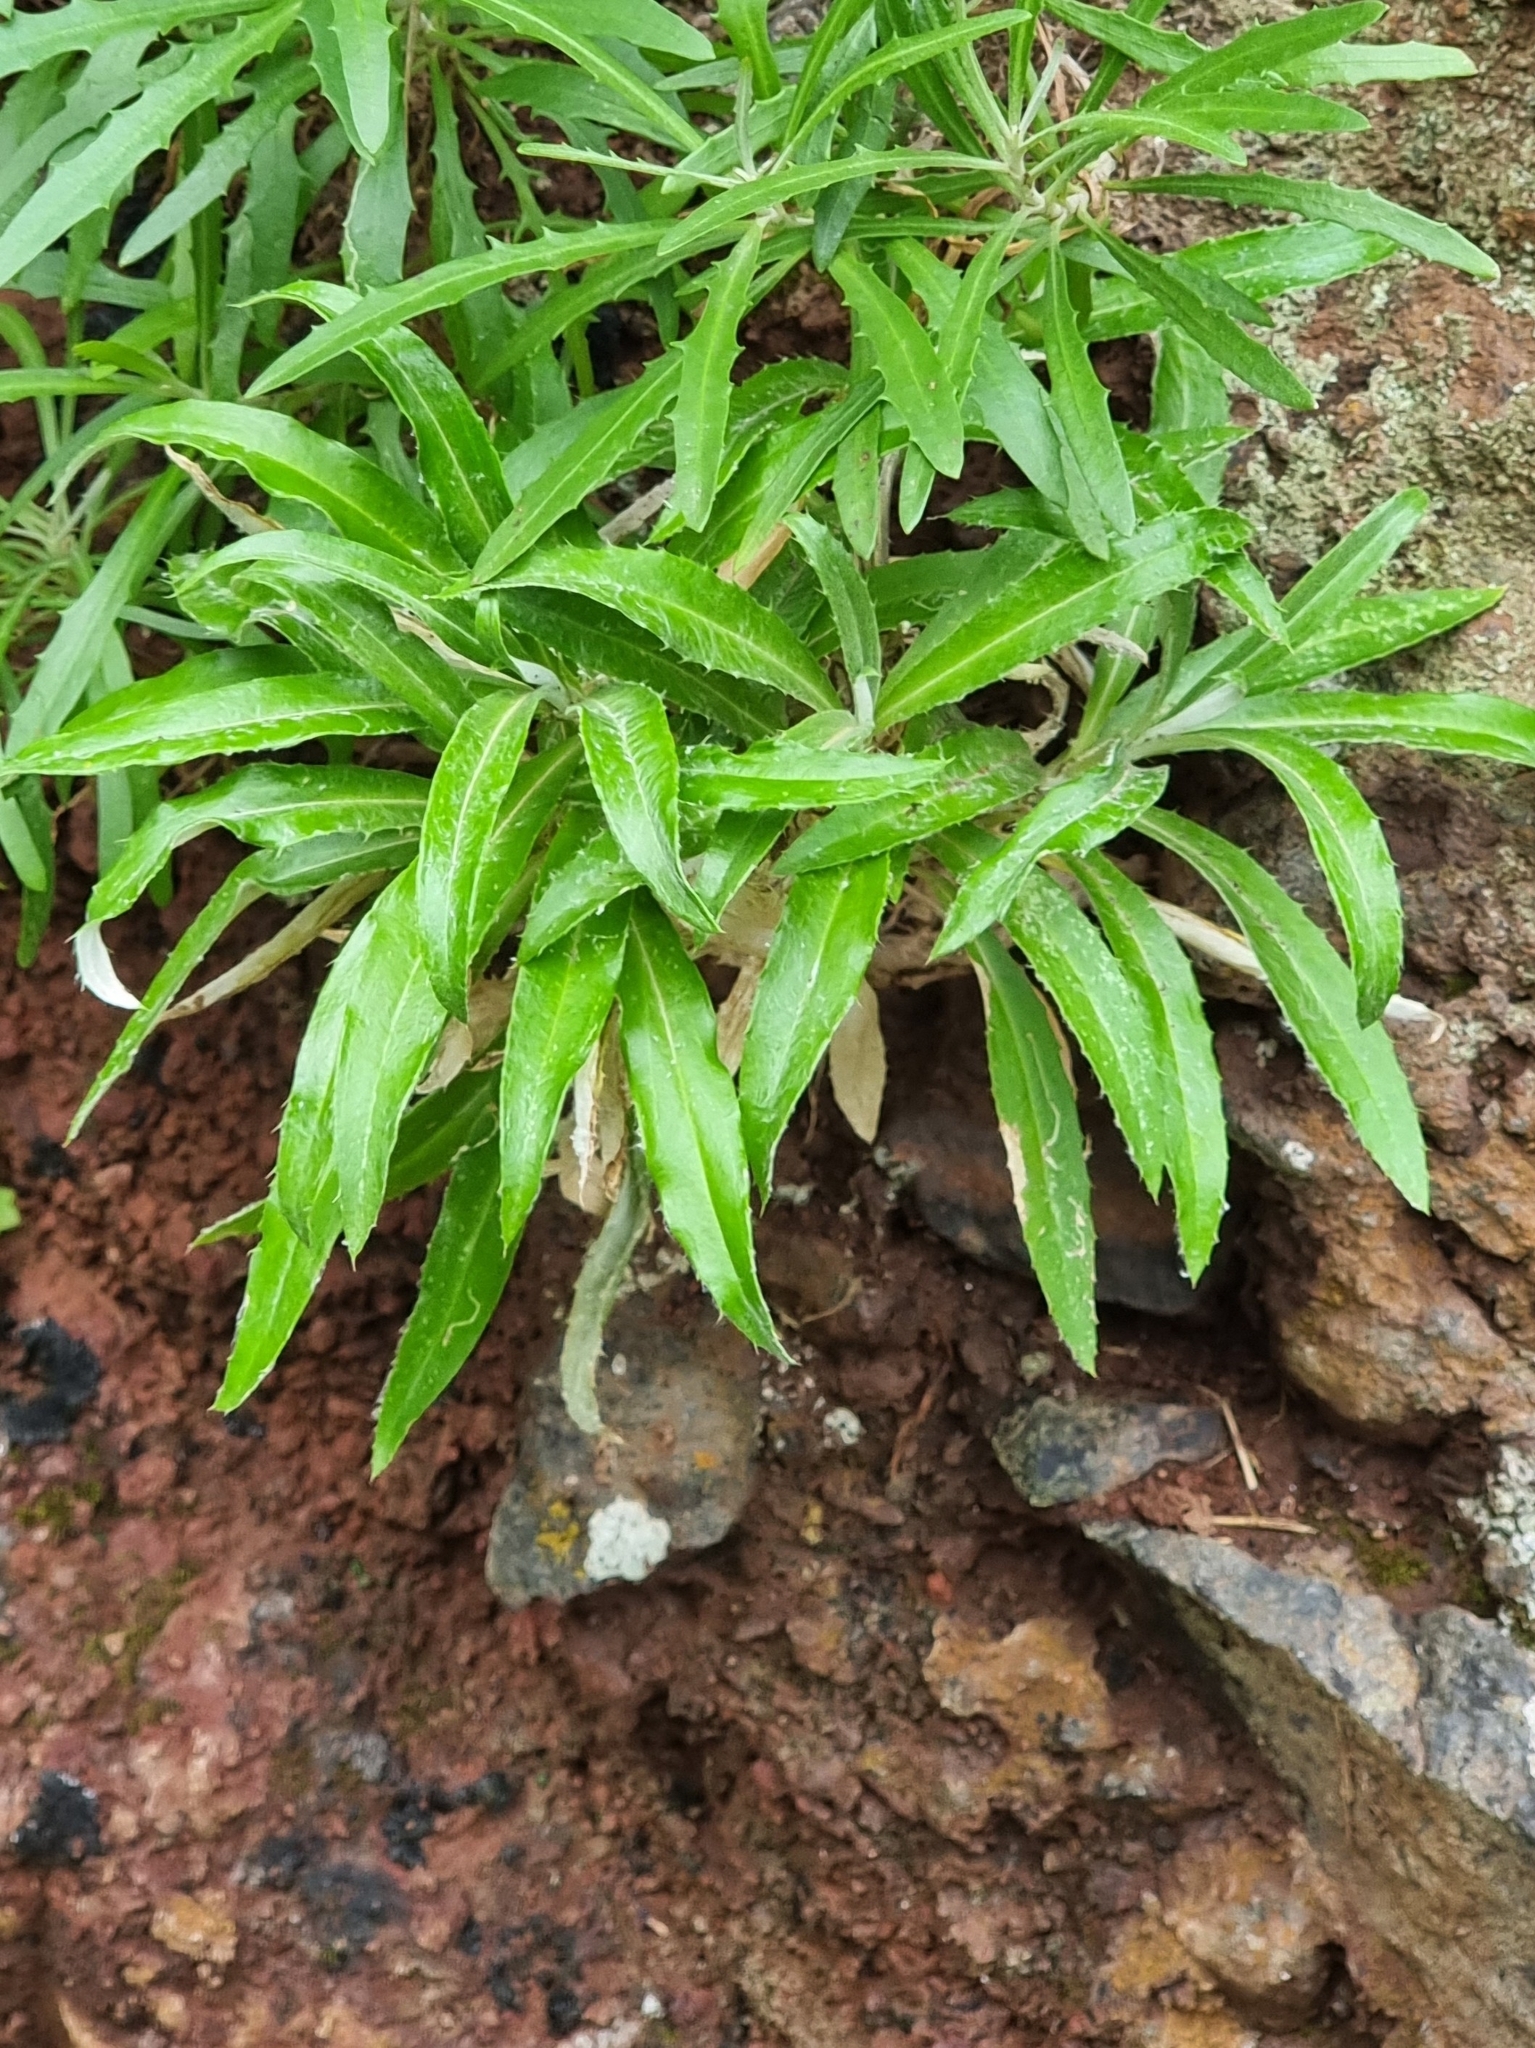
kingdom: Plantae
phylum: Tracheophyta
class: Magnoliopsida
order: Asterales
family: Asteraceae
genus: Carlina
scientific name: Carlina salicifolia
